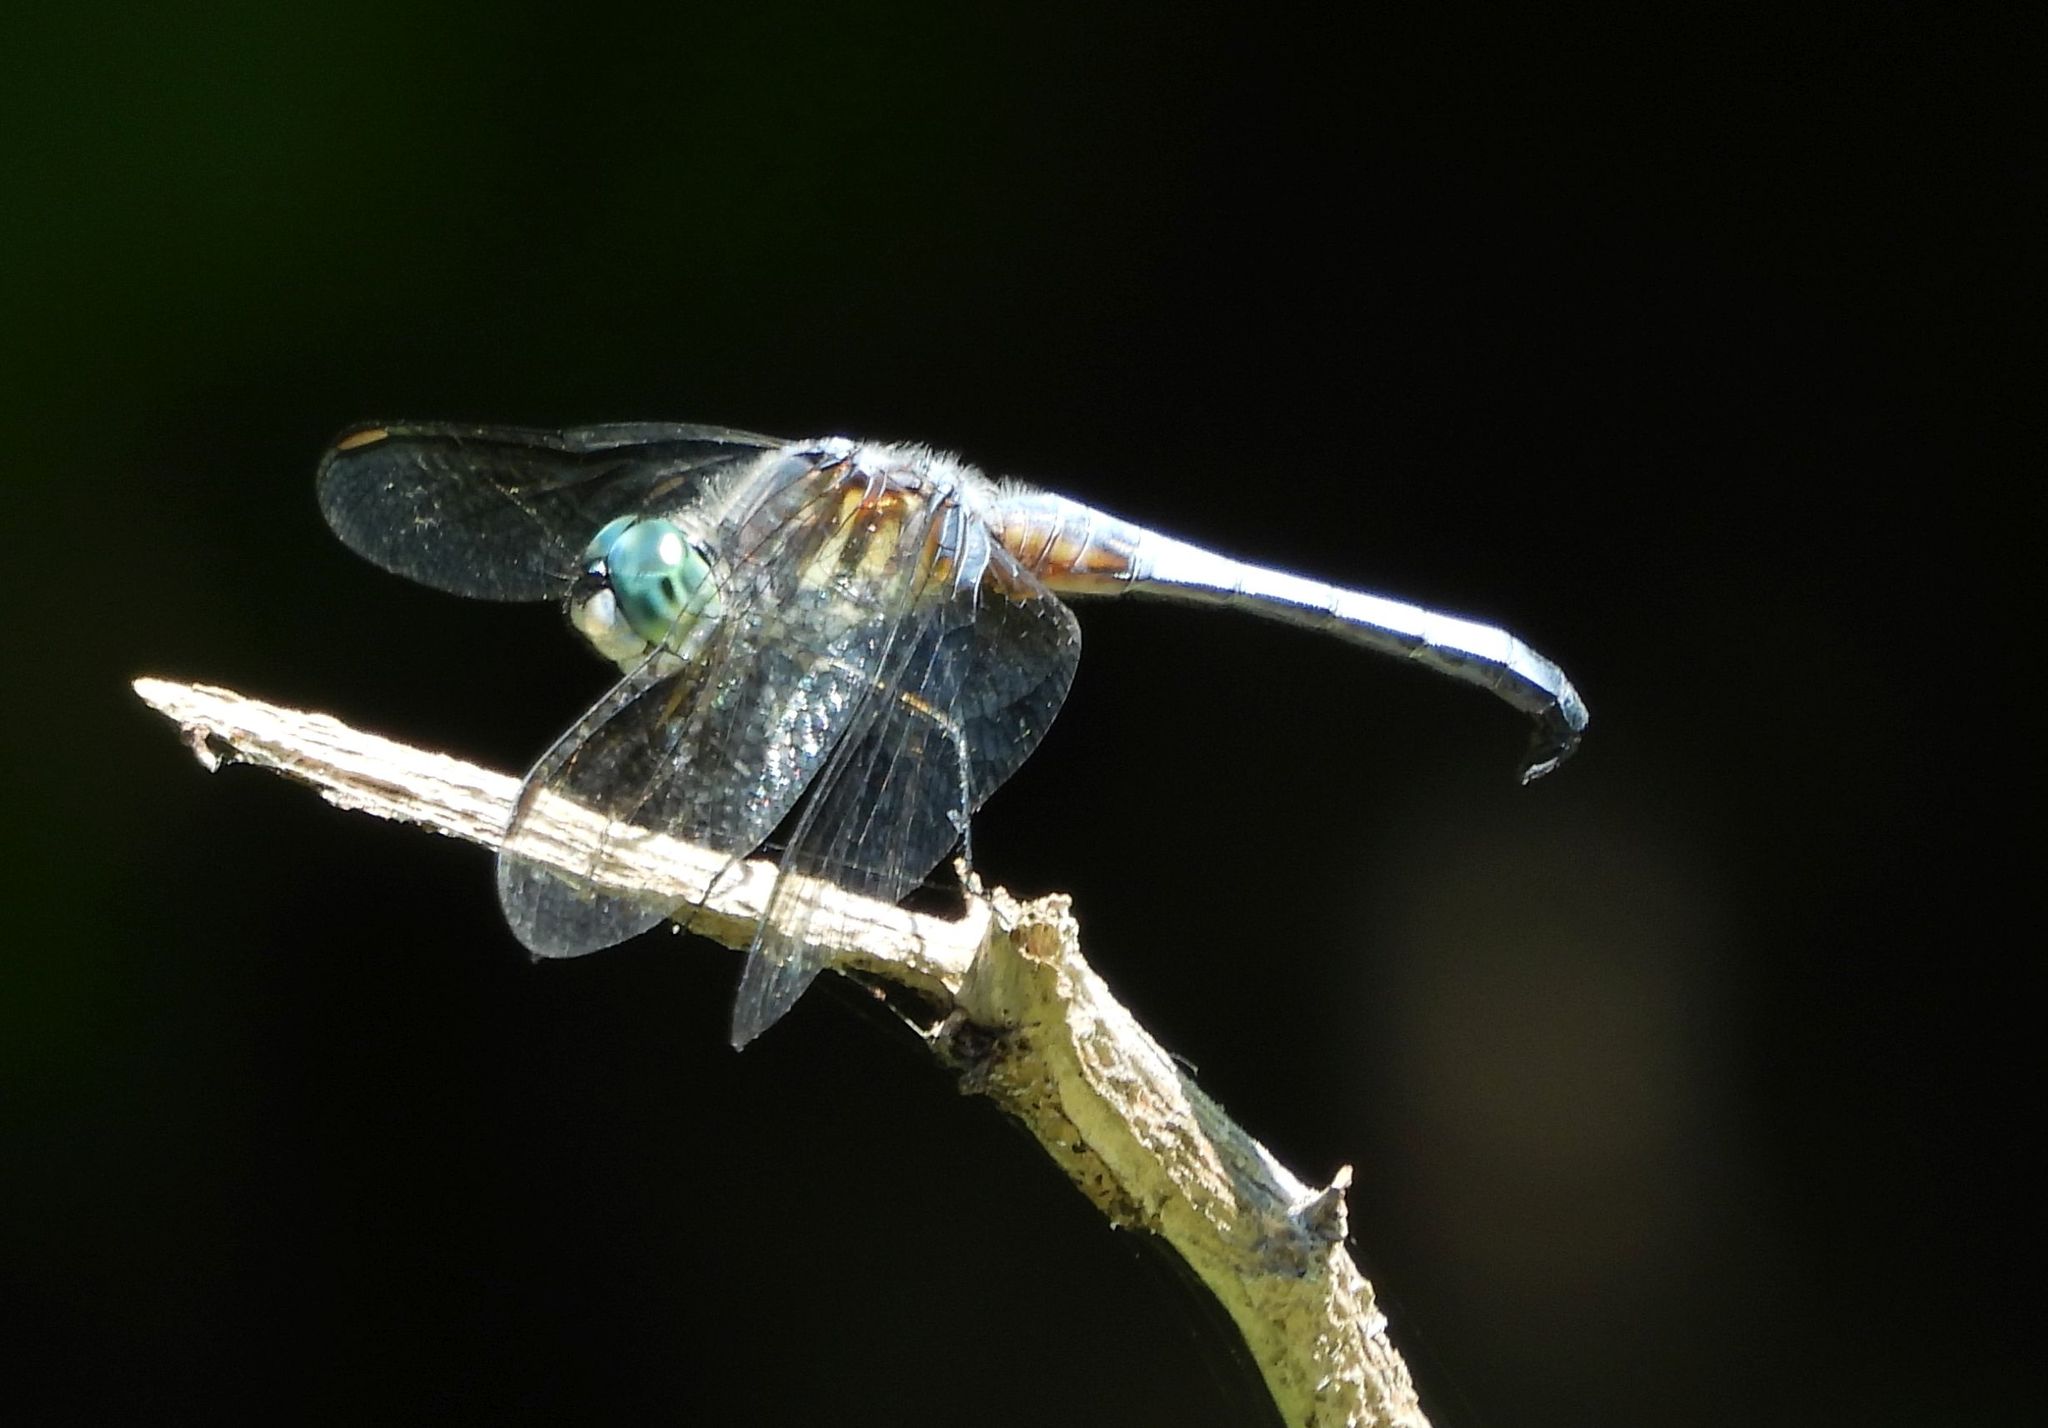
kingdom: Animalia
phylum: Arthropoda
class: Insecta
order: Odonata
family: Libellulidae
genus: Pachydiplax
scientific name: Pachydiplax longipennis
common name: Blue dasher
